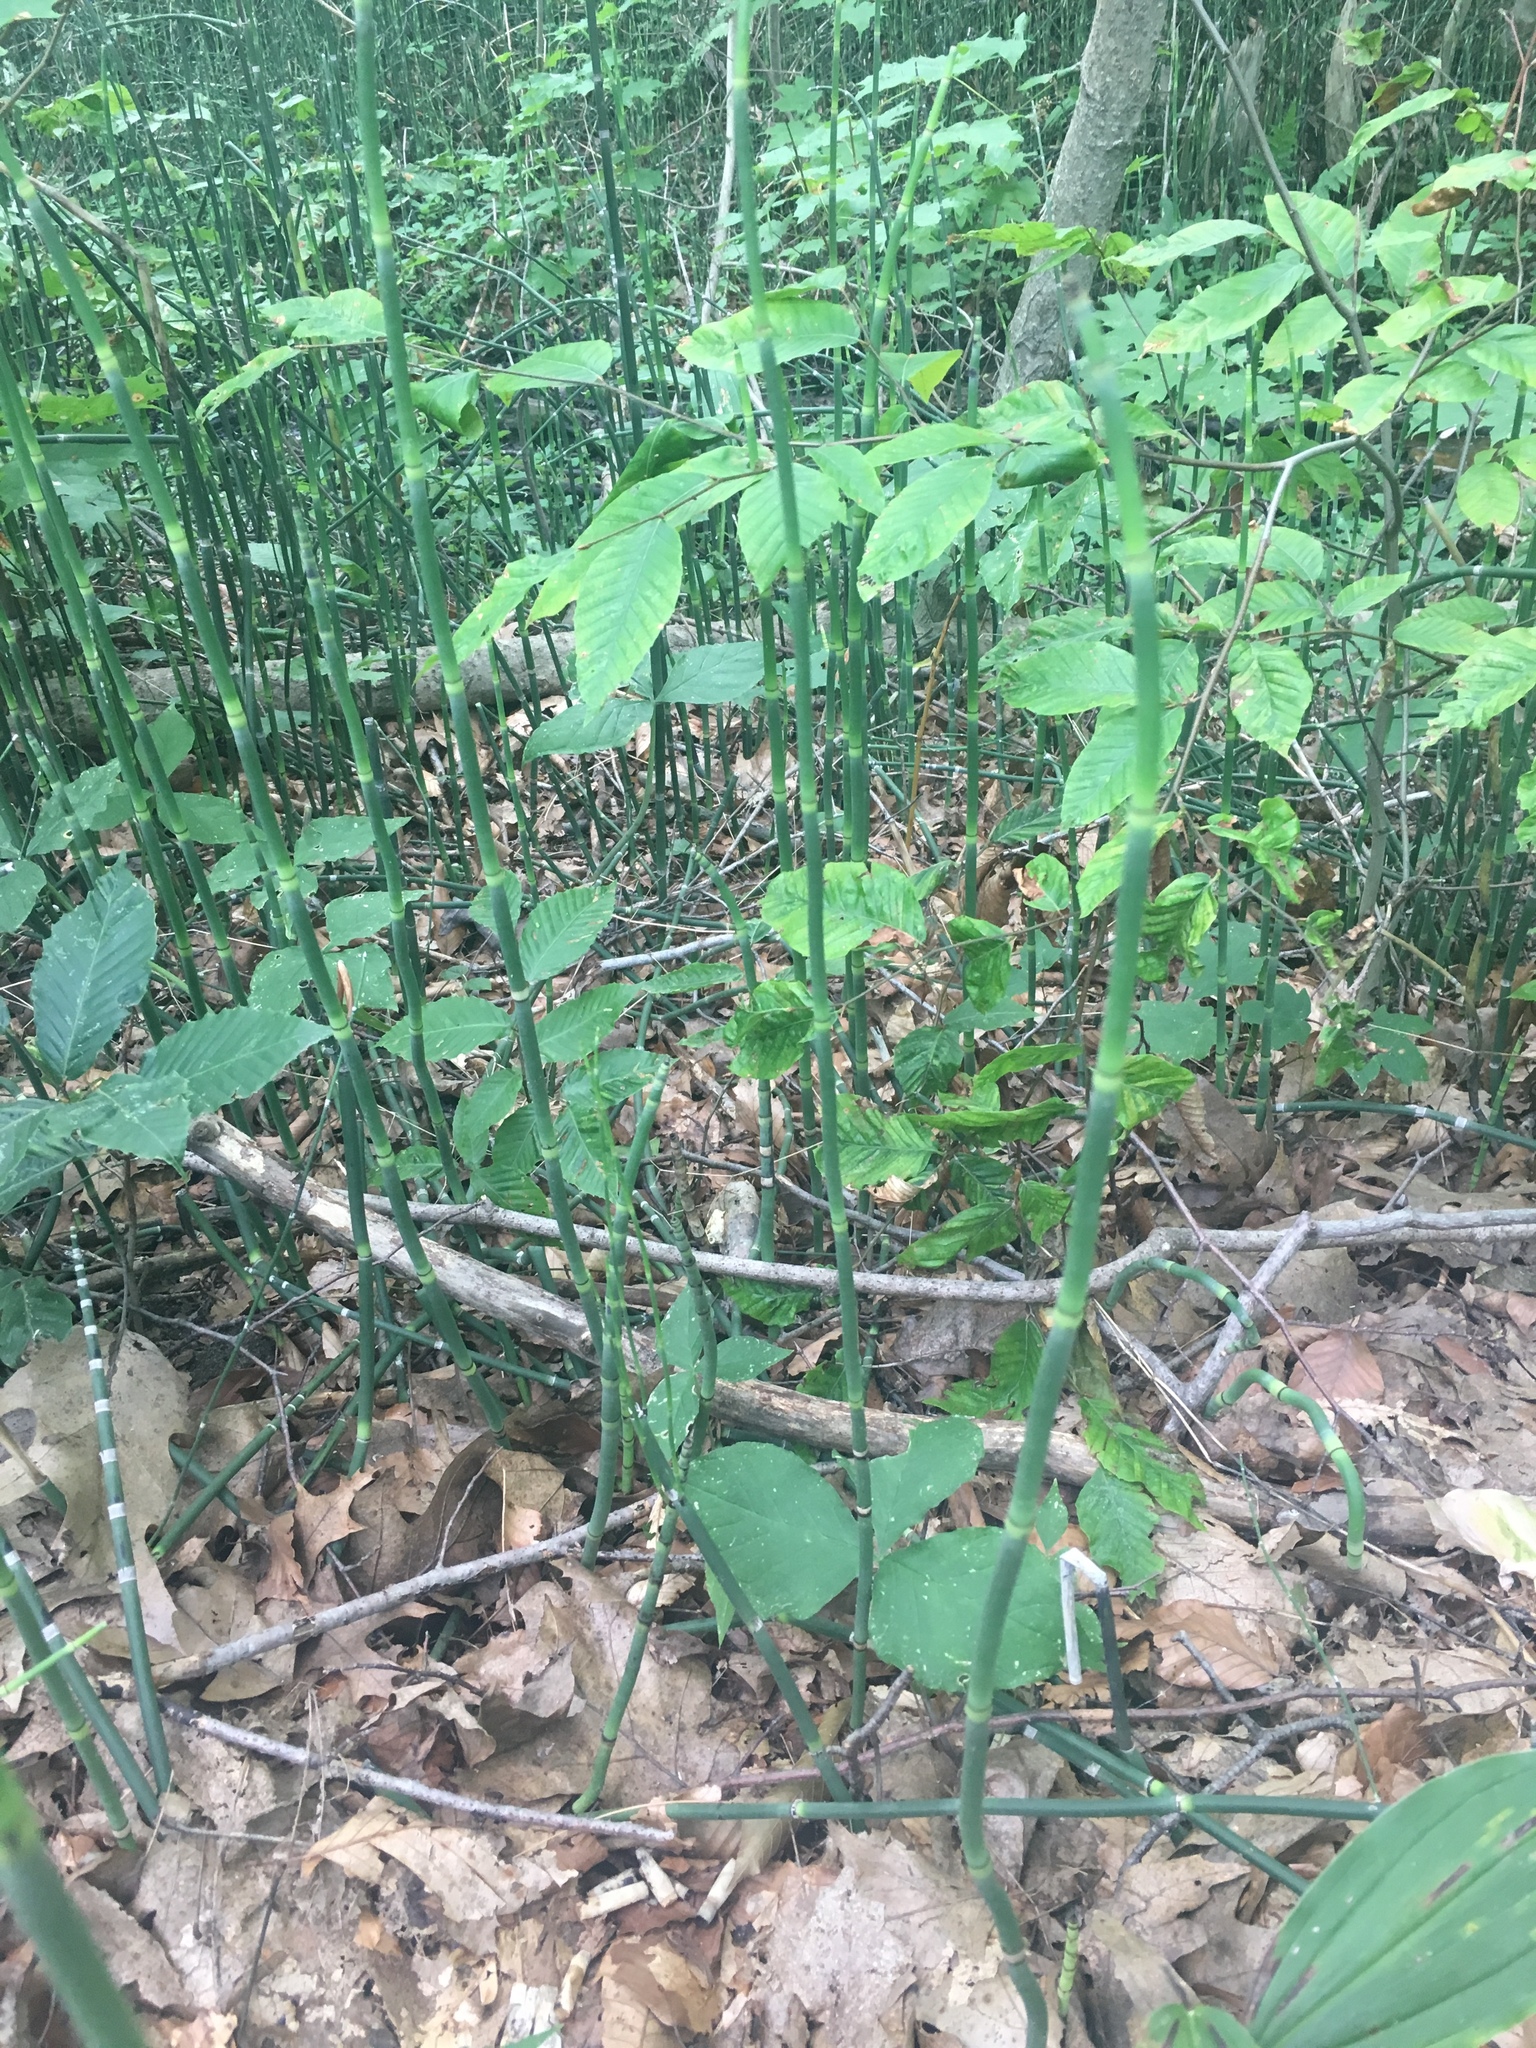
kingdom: Plantae
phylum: Tracheophyta
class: Polypodiopsida
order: Equisetales
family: Equisetaceae
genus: Equisetum
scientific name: Equisetum hyemale
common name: Rough horsetail
